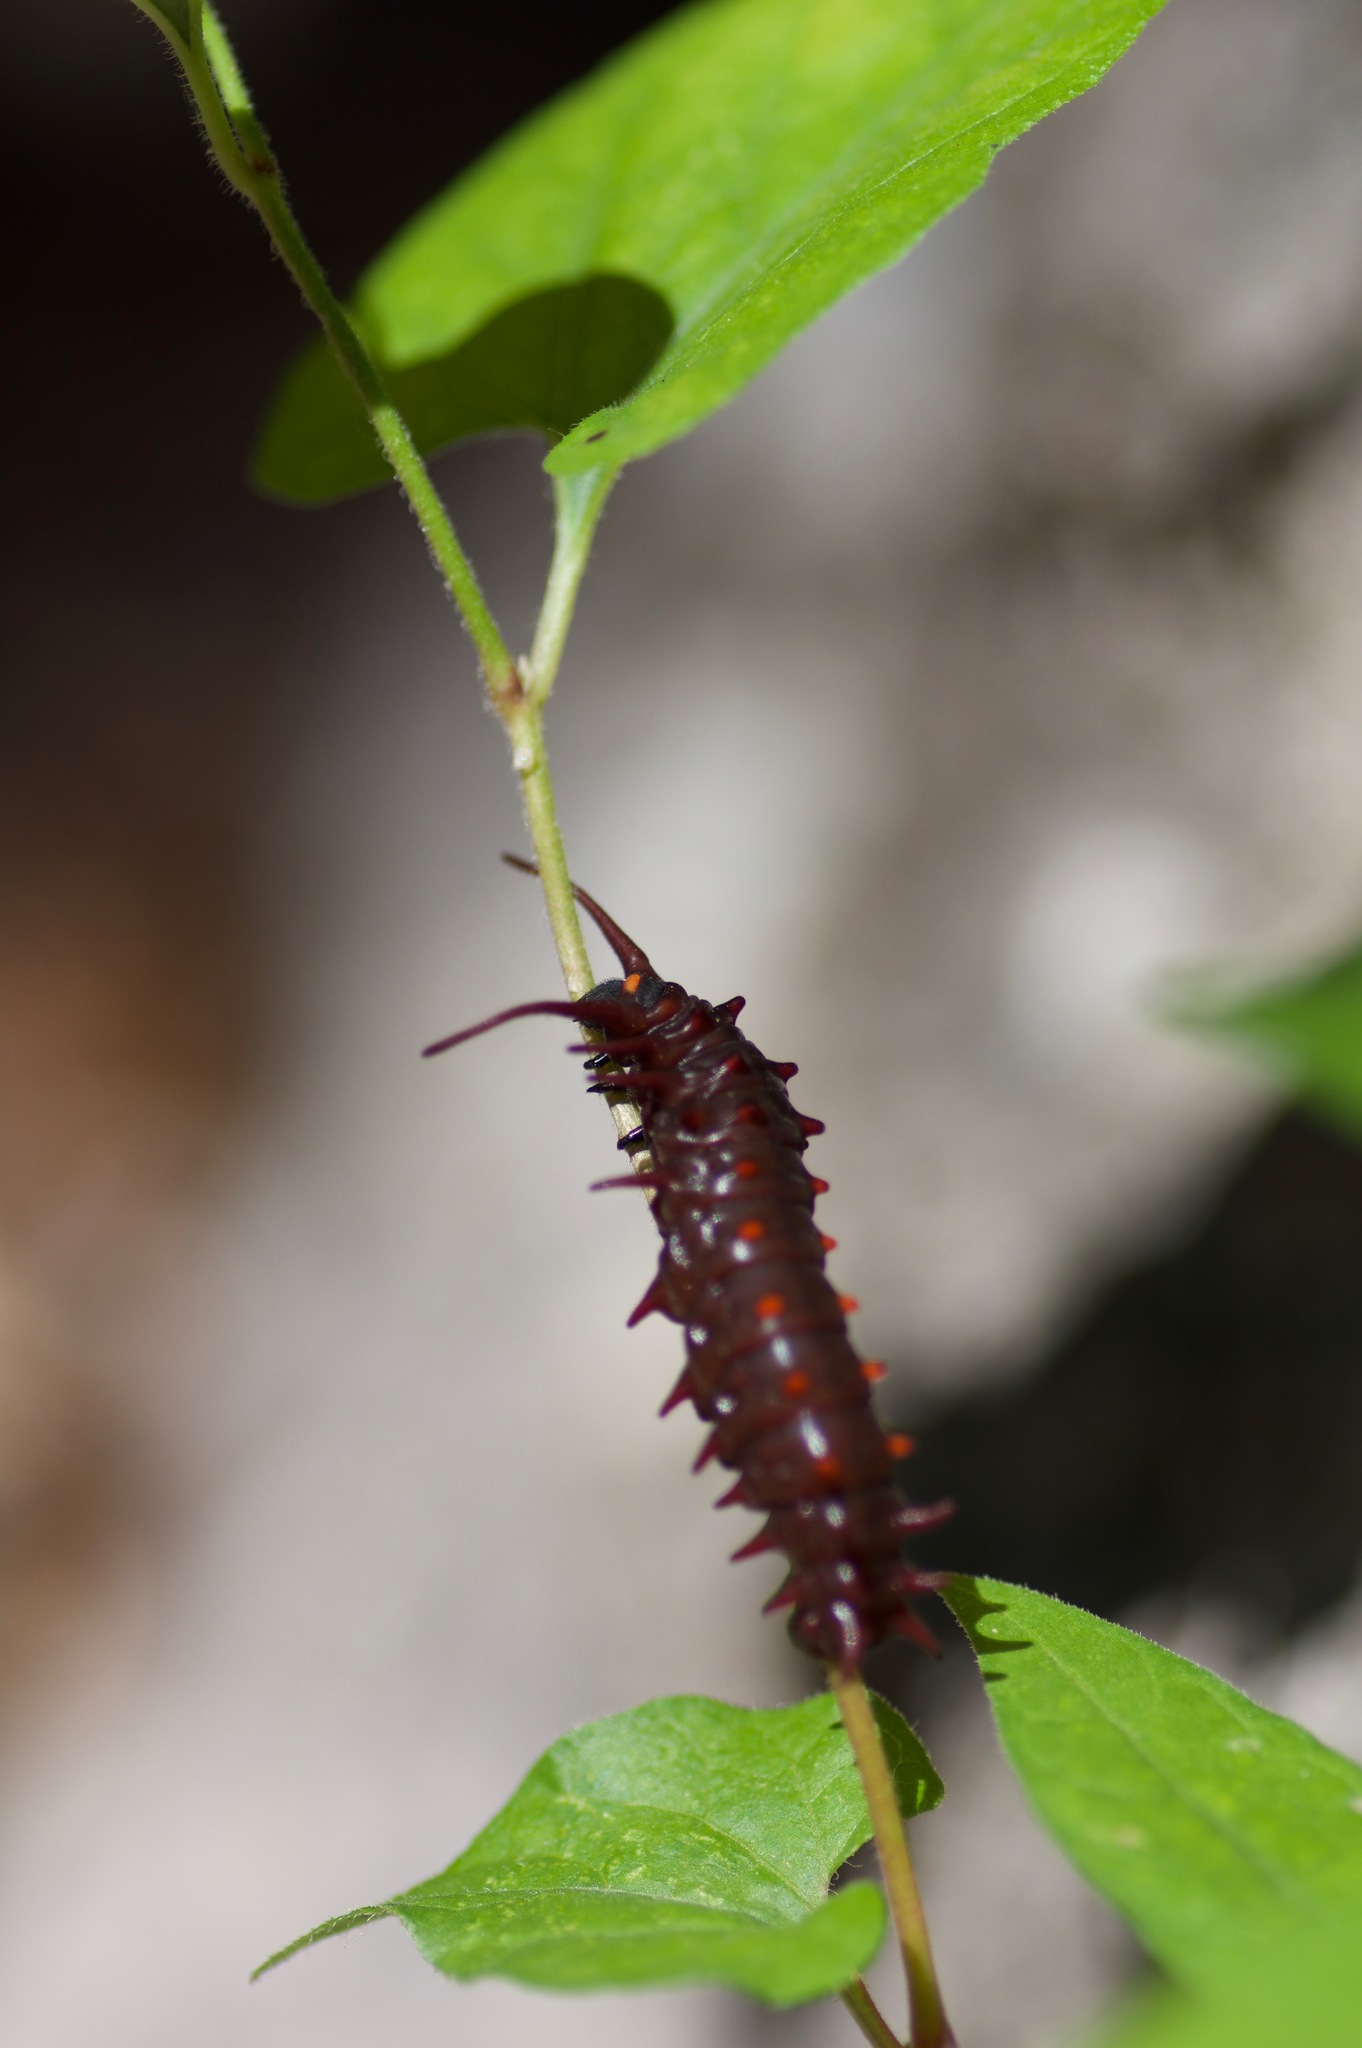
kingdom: Animalia
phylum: Arthropoda
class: Insecta
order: Lepidoptera
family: Papilionidae
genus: Battus
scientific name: Battus philenor
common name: Pipevine swallowtail
